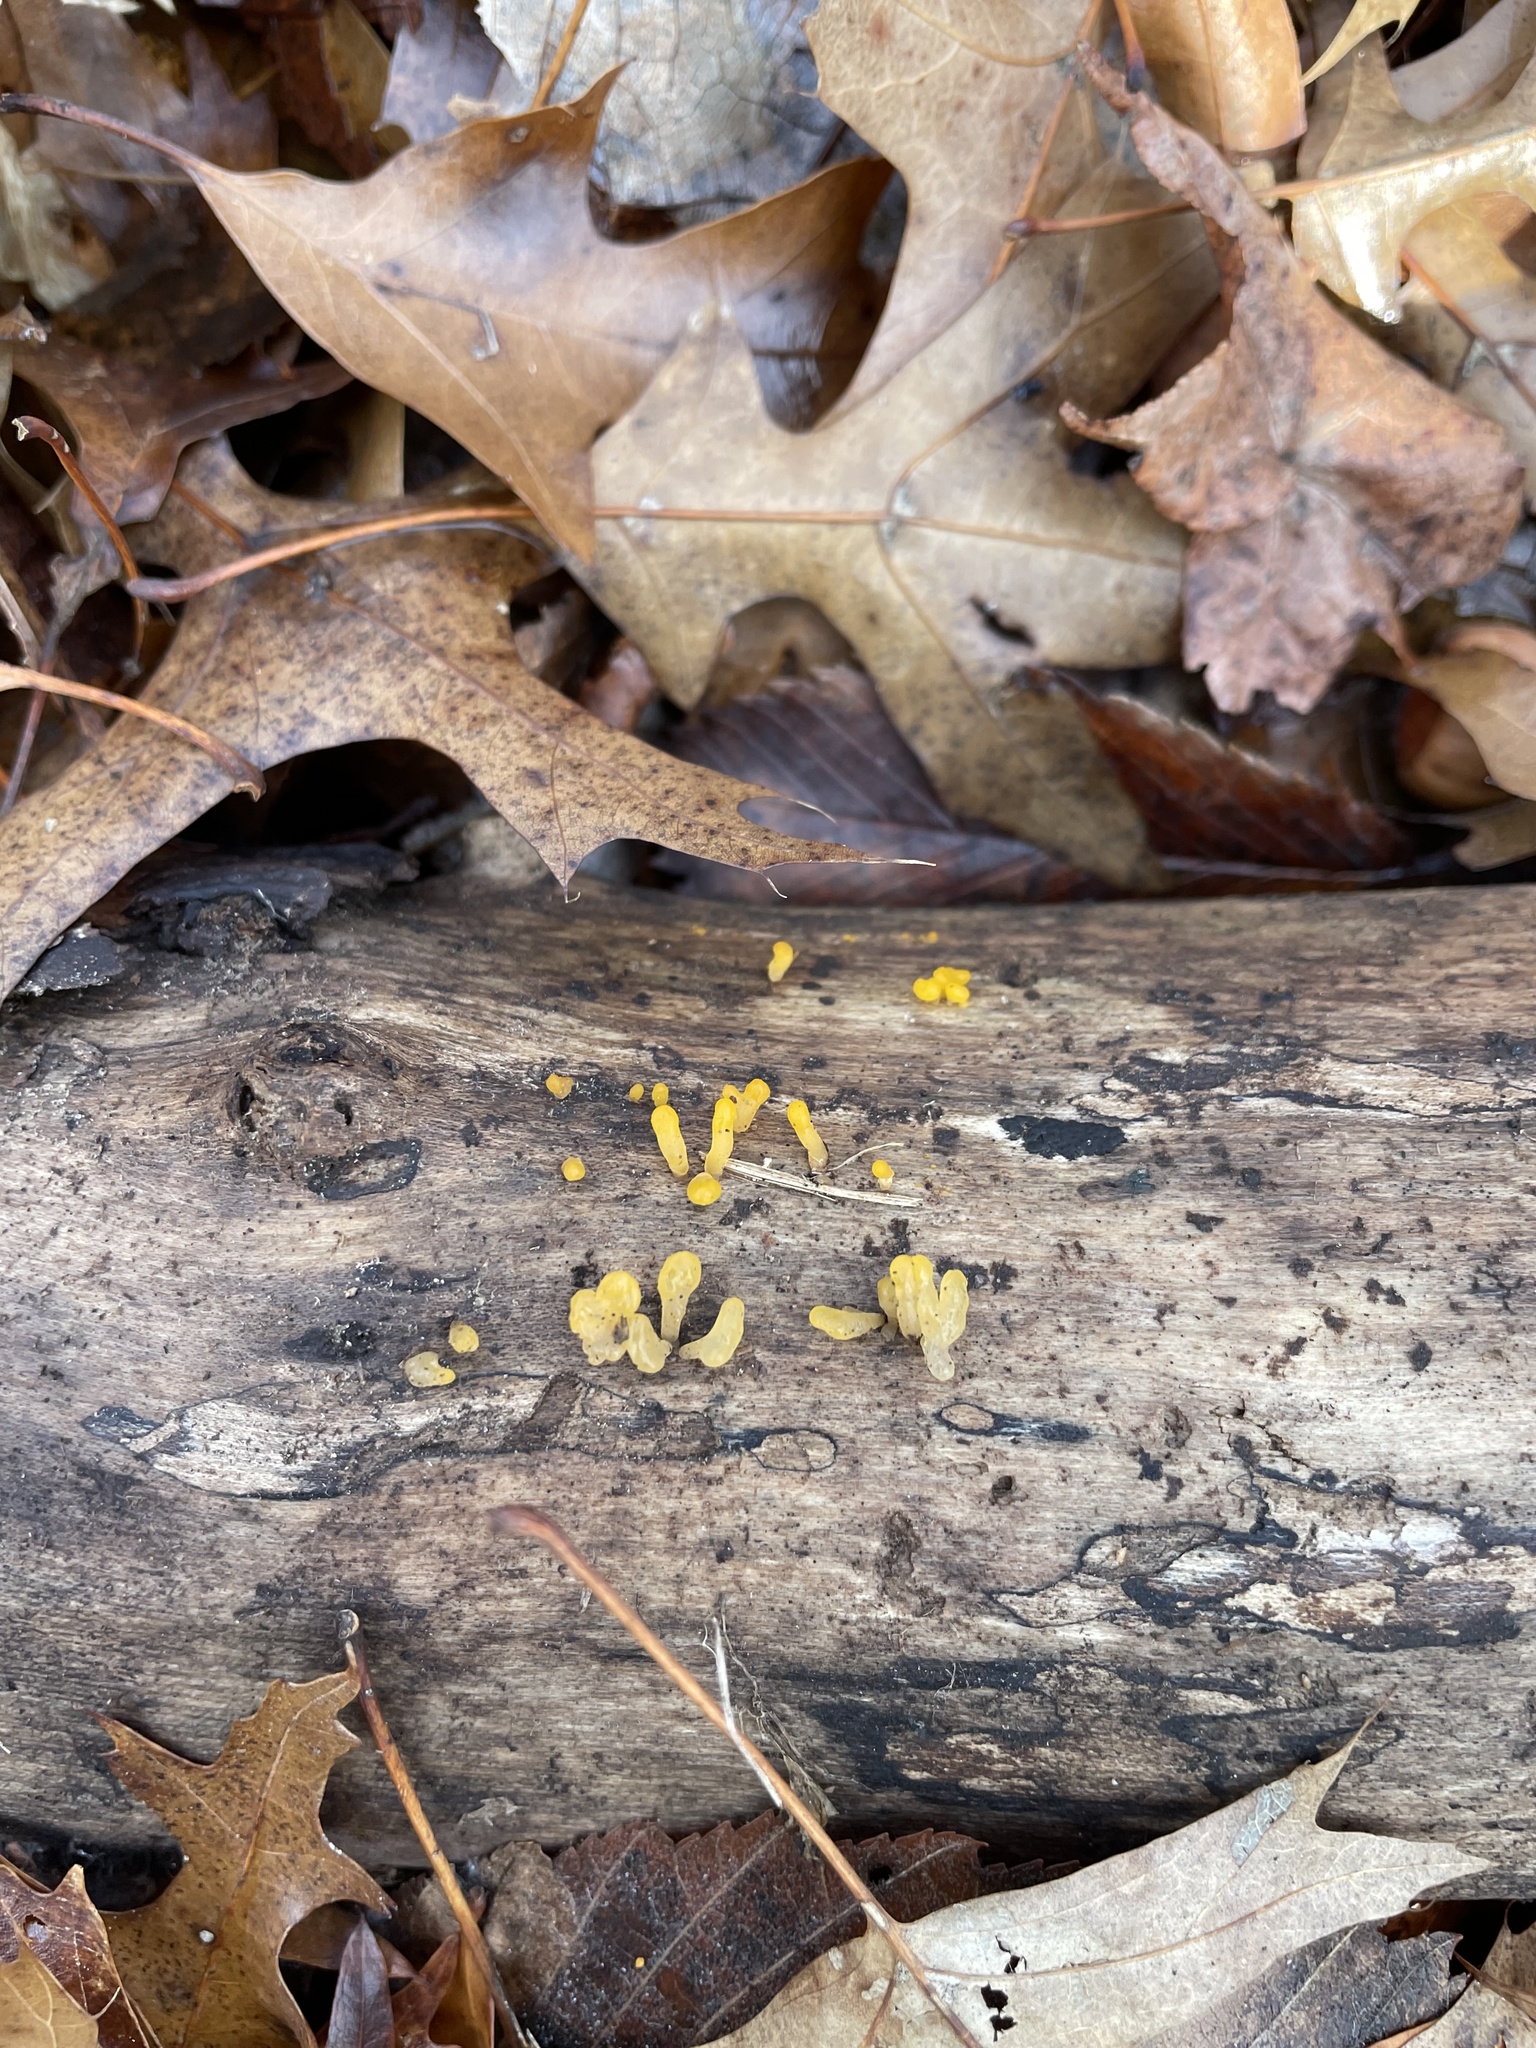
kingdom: Fungi
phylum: Basidiomycota
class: Dacrymycetes
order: Dacrymycetales
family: Dacrymycetaceae
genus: Dacrymyces
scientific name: Dacrymyces spathularius
